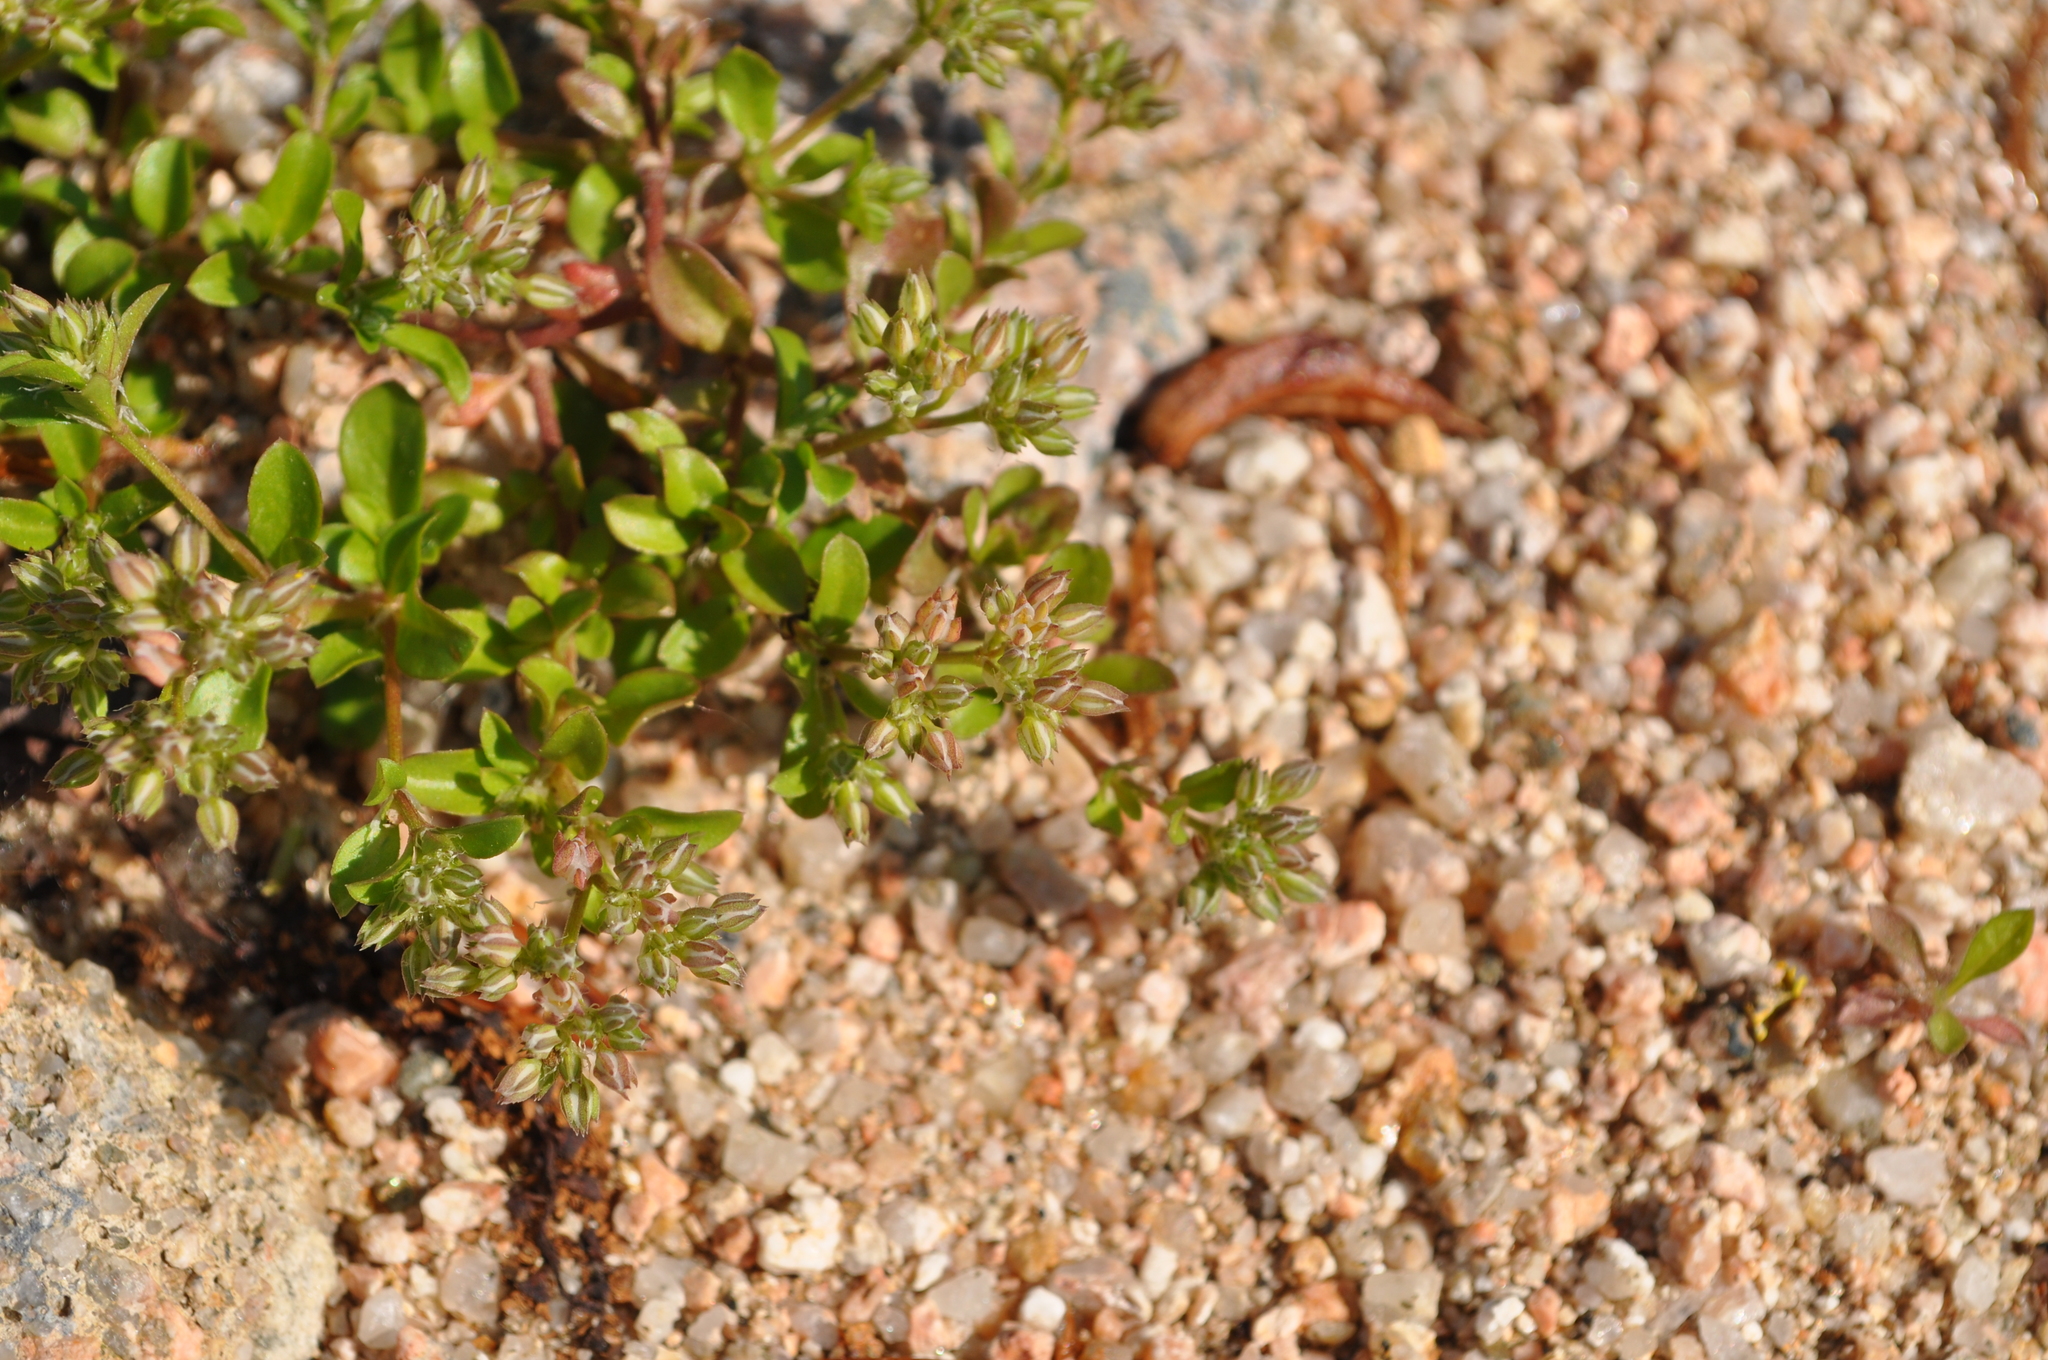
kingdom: Plantae
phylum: Tracheophyta
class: Magnoliopsida
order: Caryophyllales
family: Caryophyllaceae
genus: Polycarpon
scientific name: Polycarpon tetraphyllum
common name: Four-leaved all-seed
